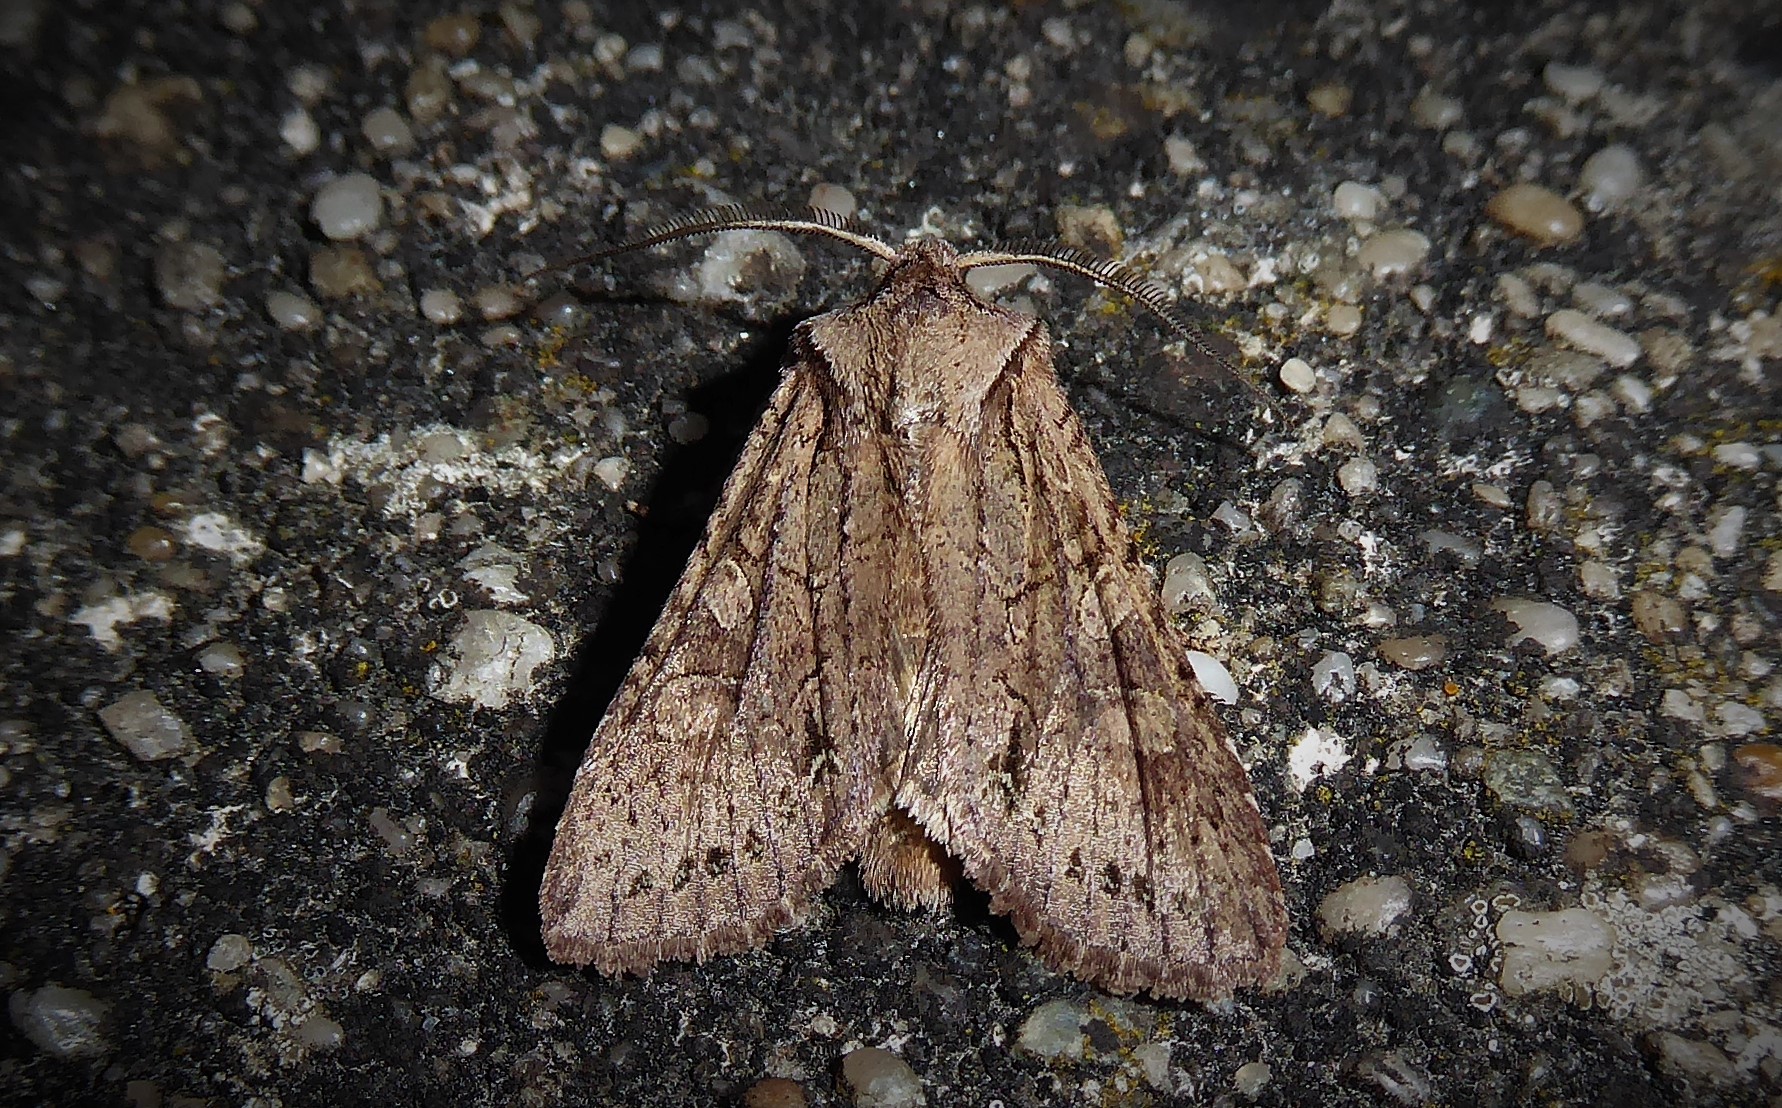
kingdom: Animalia
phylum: Arthropoda
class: Insecta
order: Lepidoptera
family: Noctuidae
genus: Ichneutica
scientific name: Ichneutica
